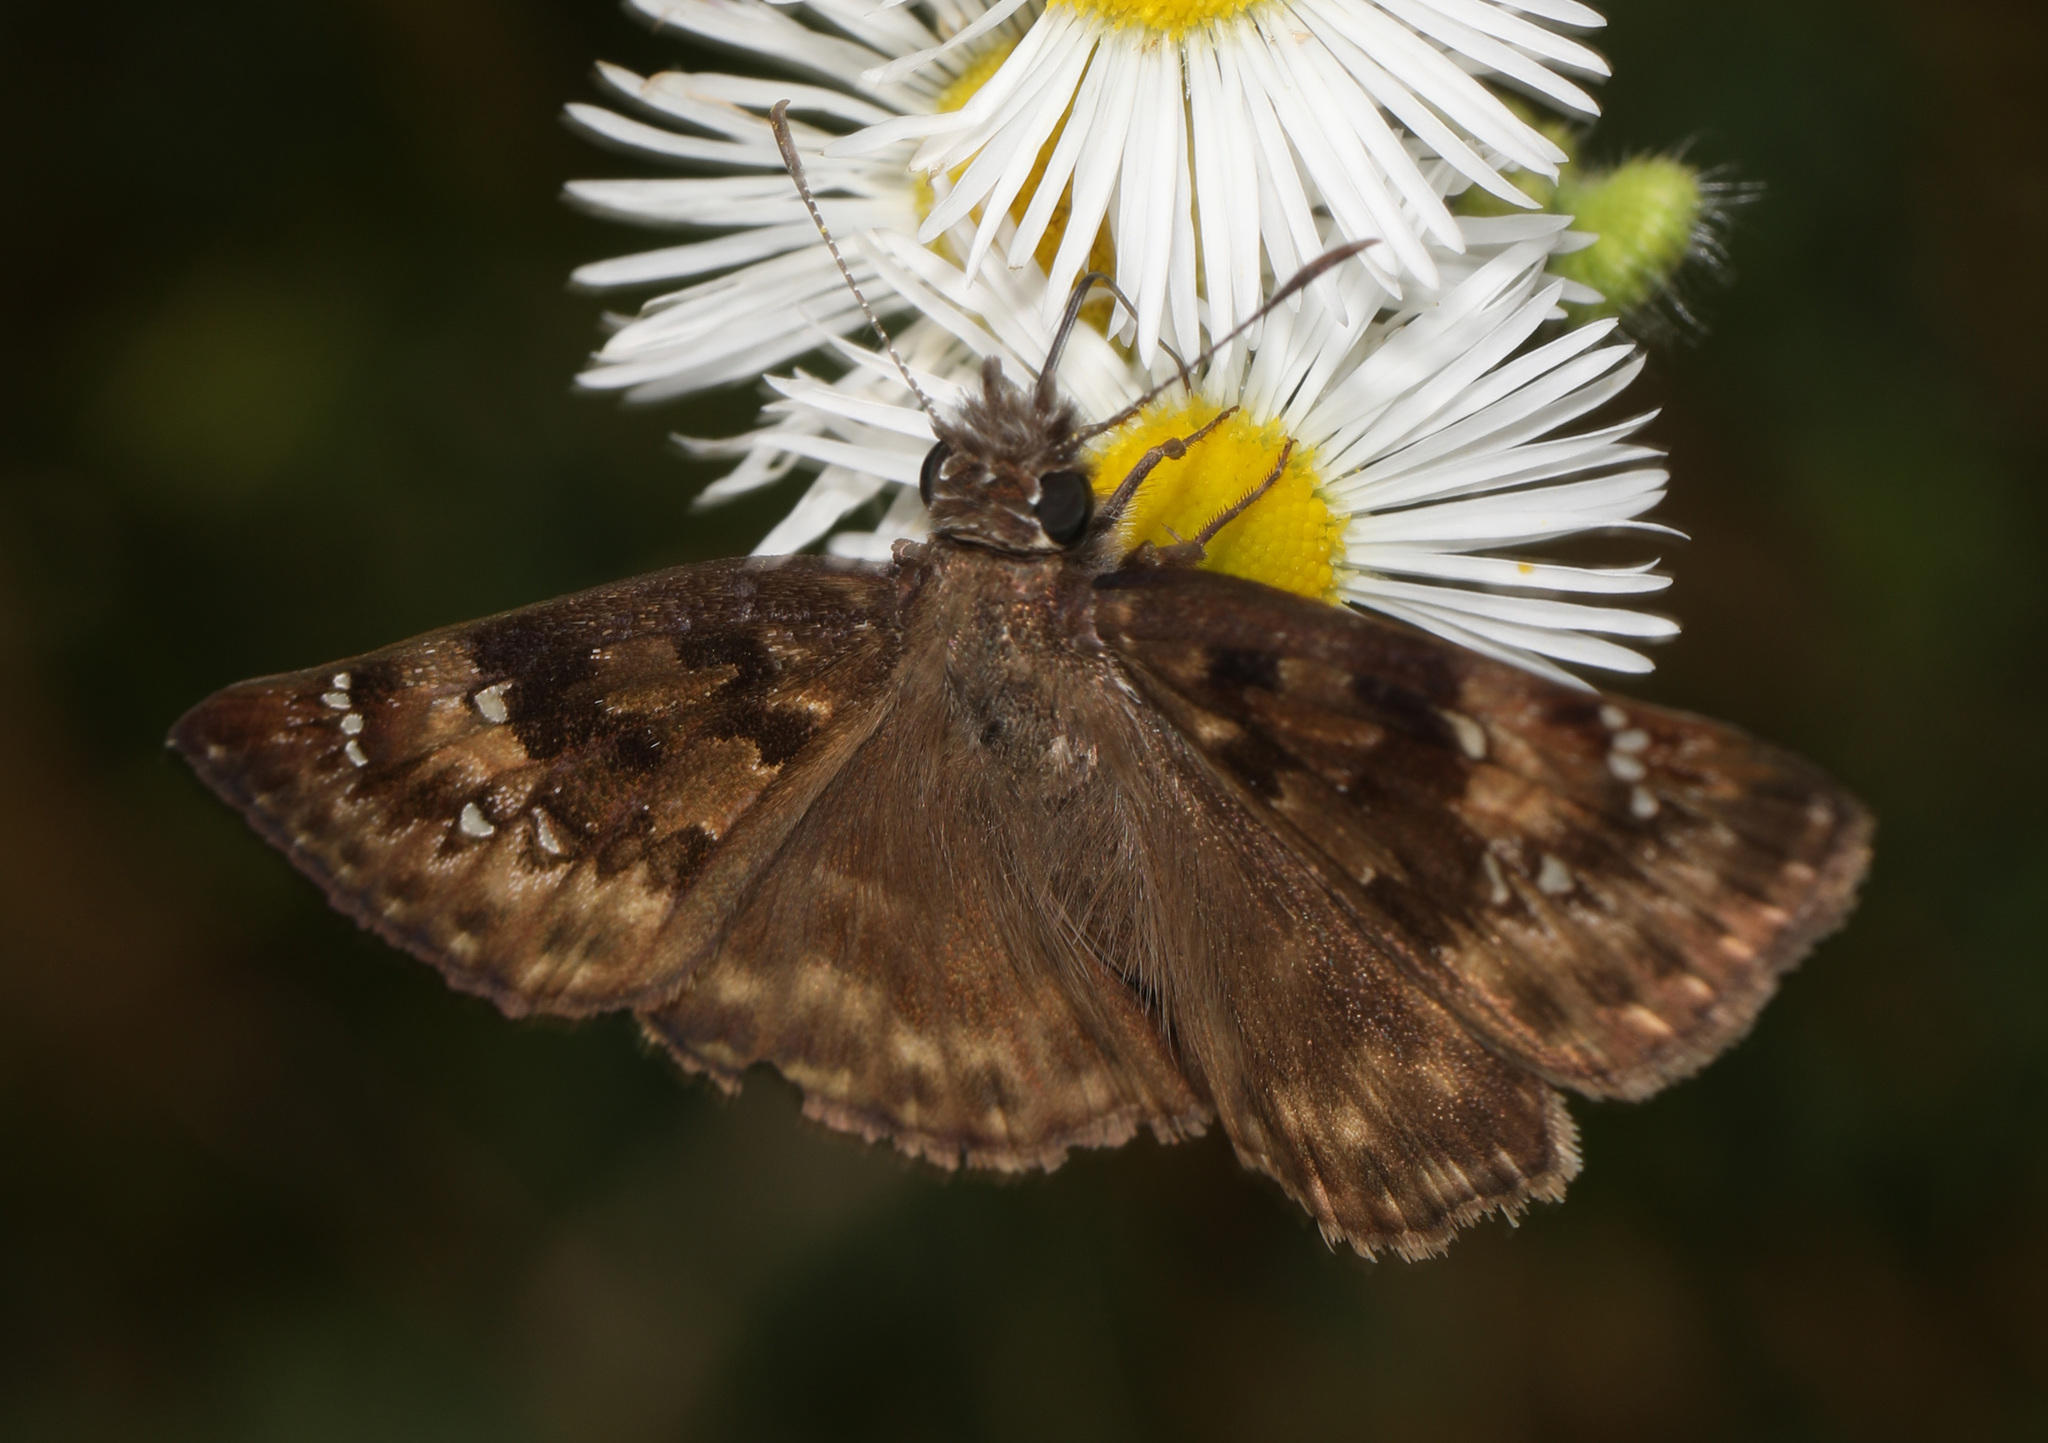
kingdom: Animalia
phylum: Arthropoda
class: Insecta
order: Lepidoptera
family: Hesperiidae
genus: Erynnis
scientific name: Erynnis horatius
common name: Horace's duskywing
